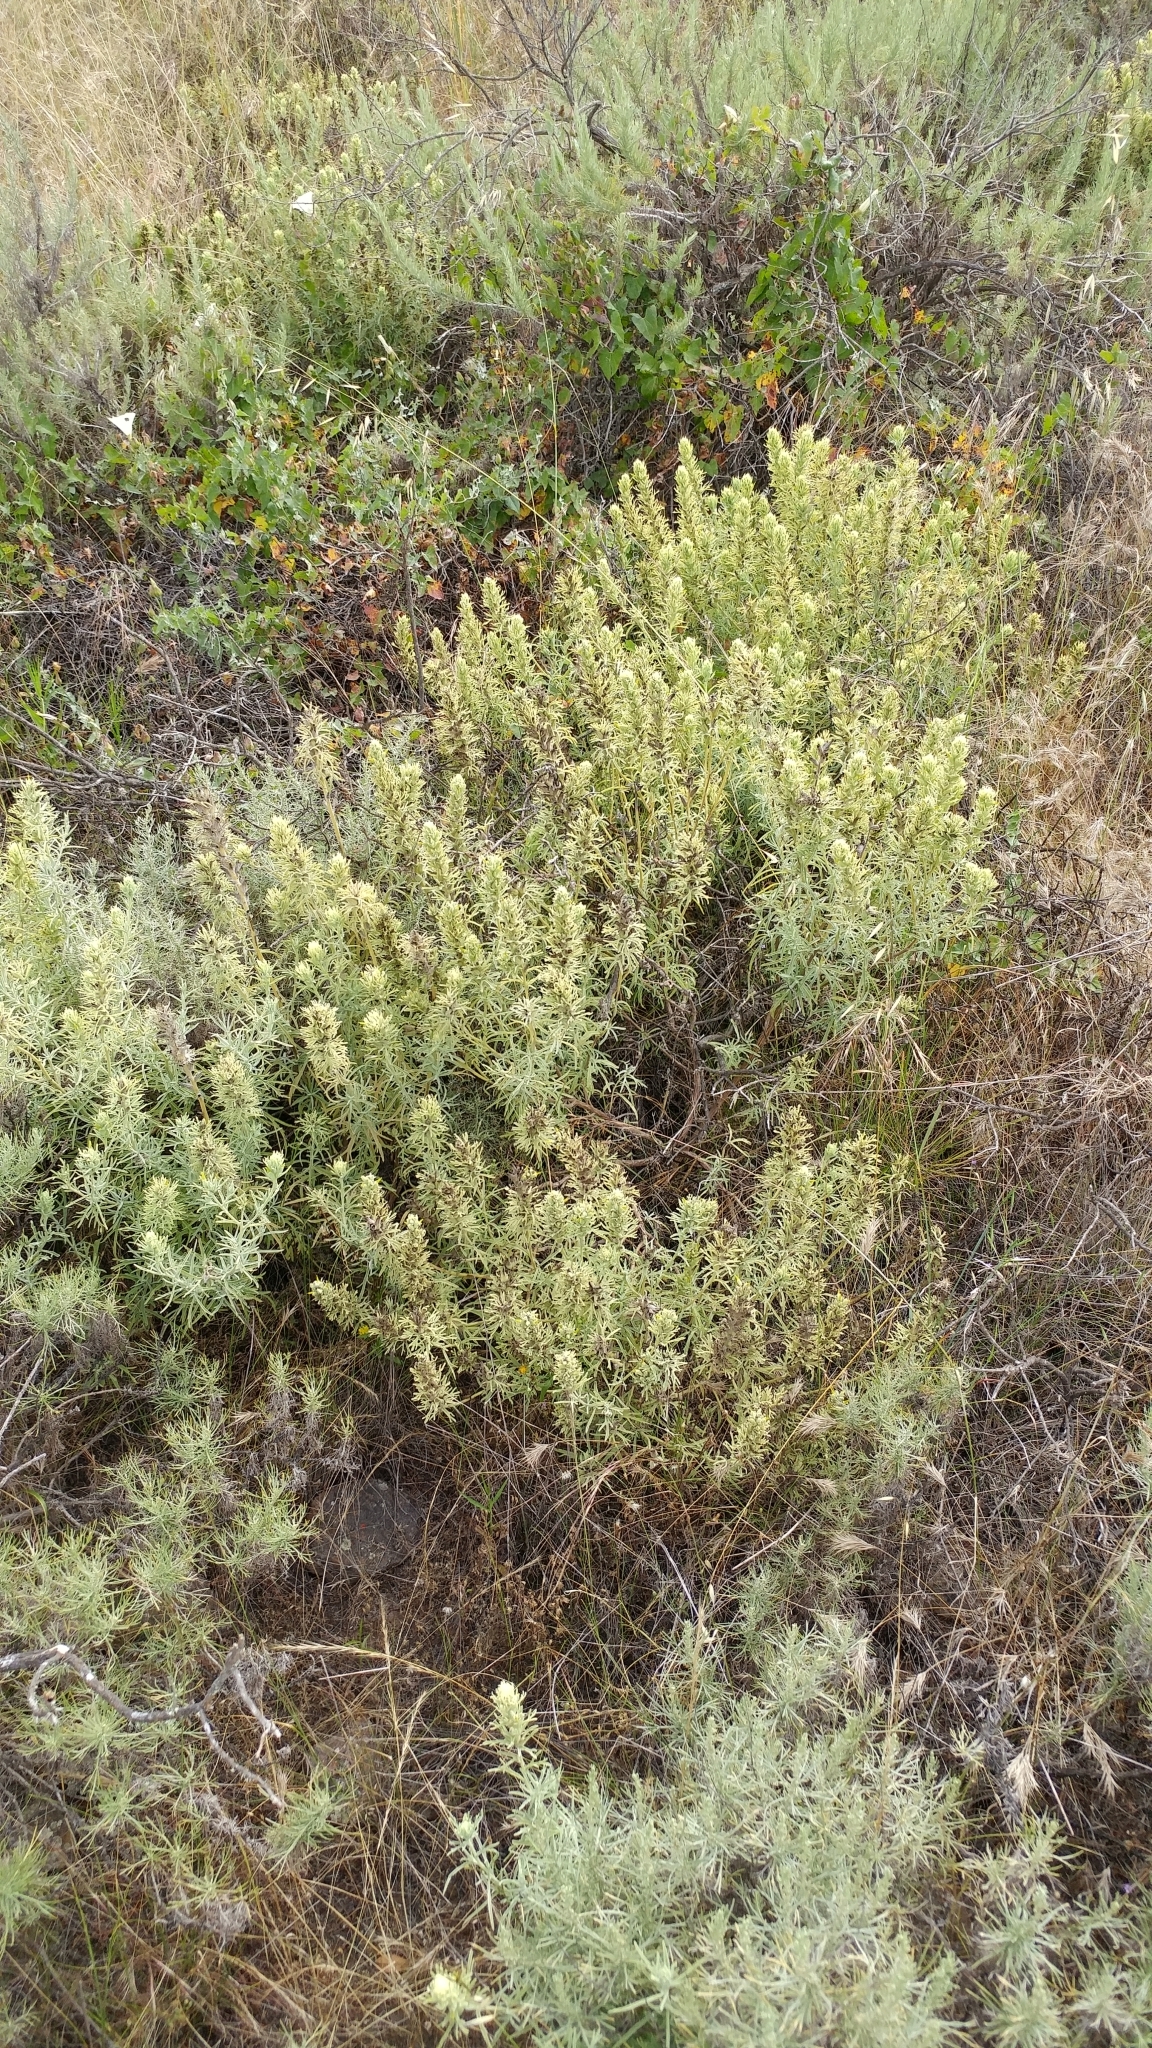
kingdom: Plantae
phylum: Tracheophyta
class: Magnoliopsida
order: Lamiales
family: Orobanchaceae
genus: Castilleja
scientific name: Castilleja grisea
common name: San clemente island indian paintbrush
